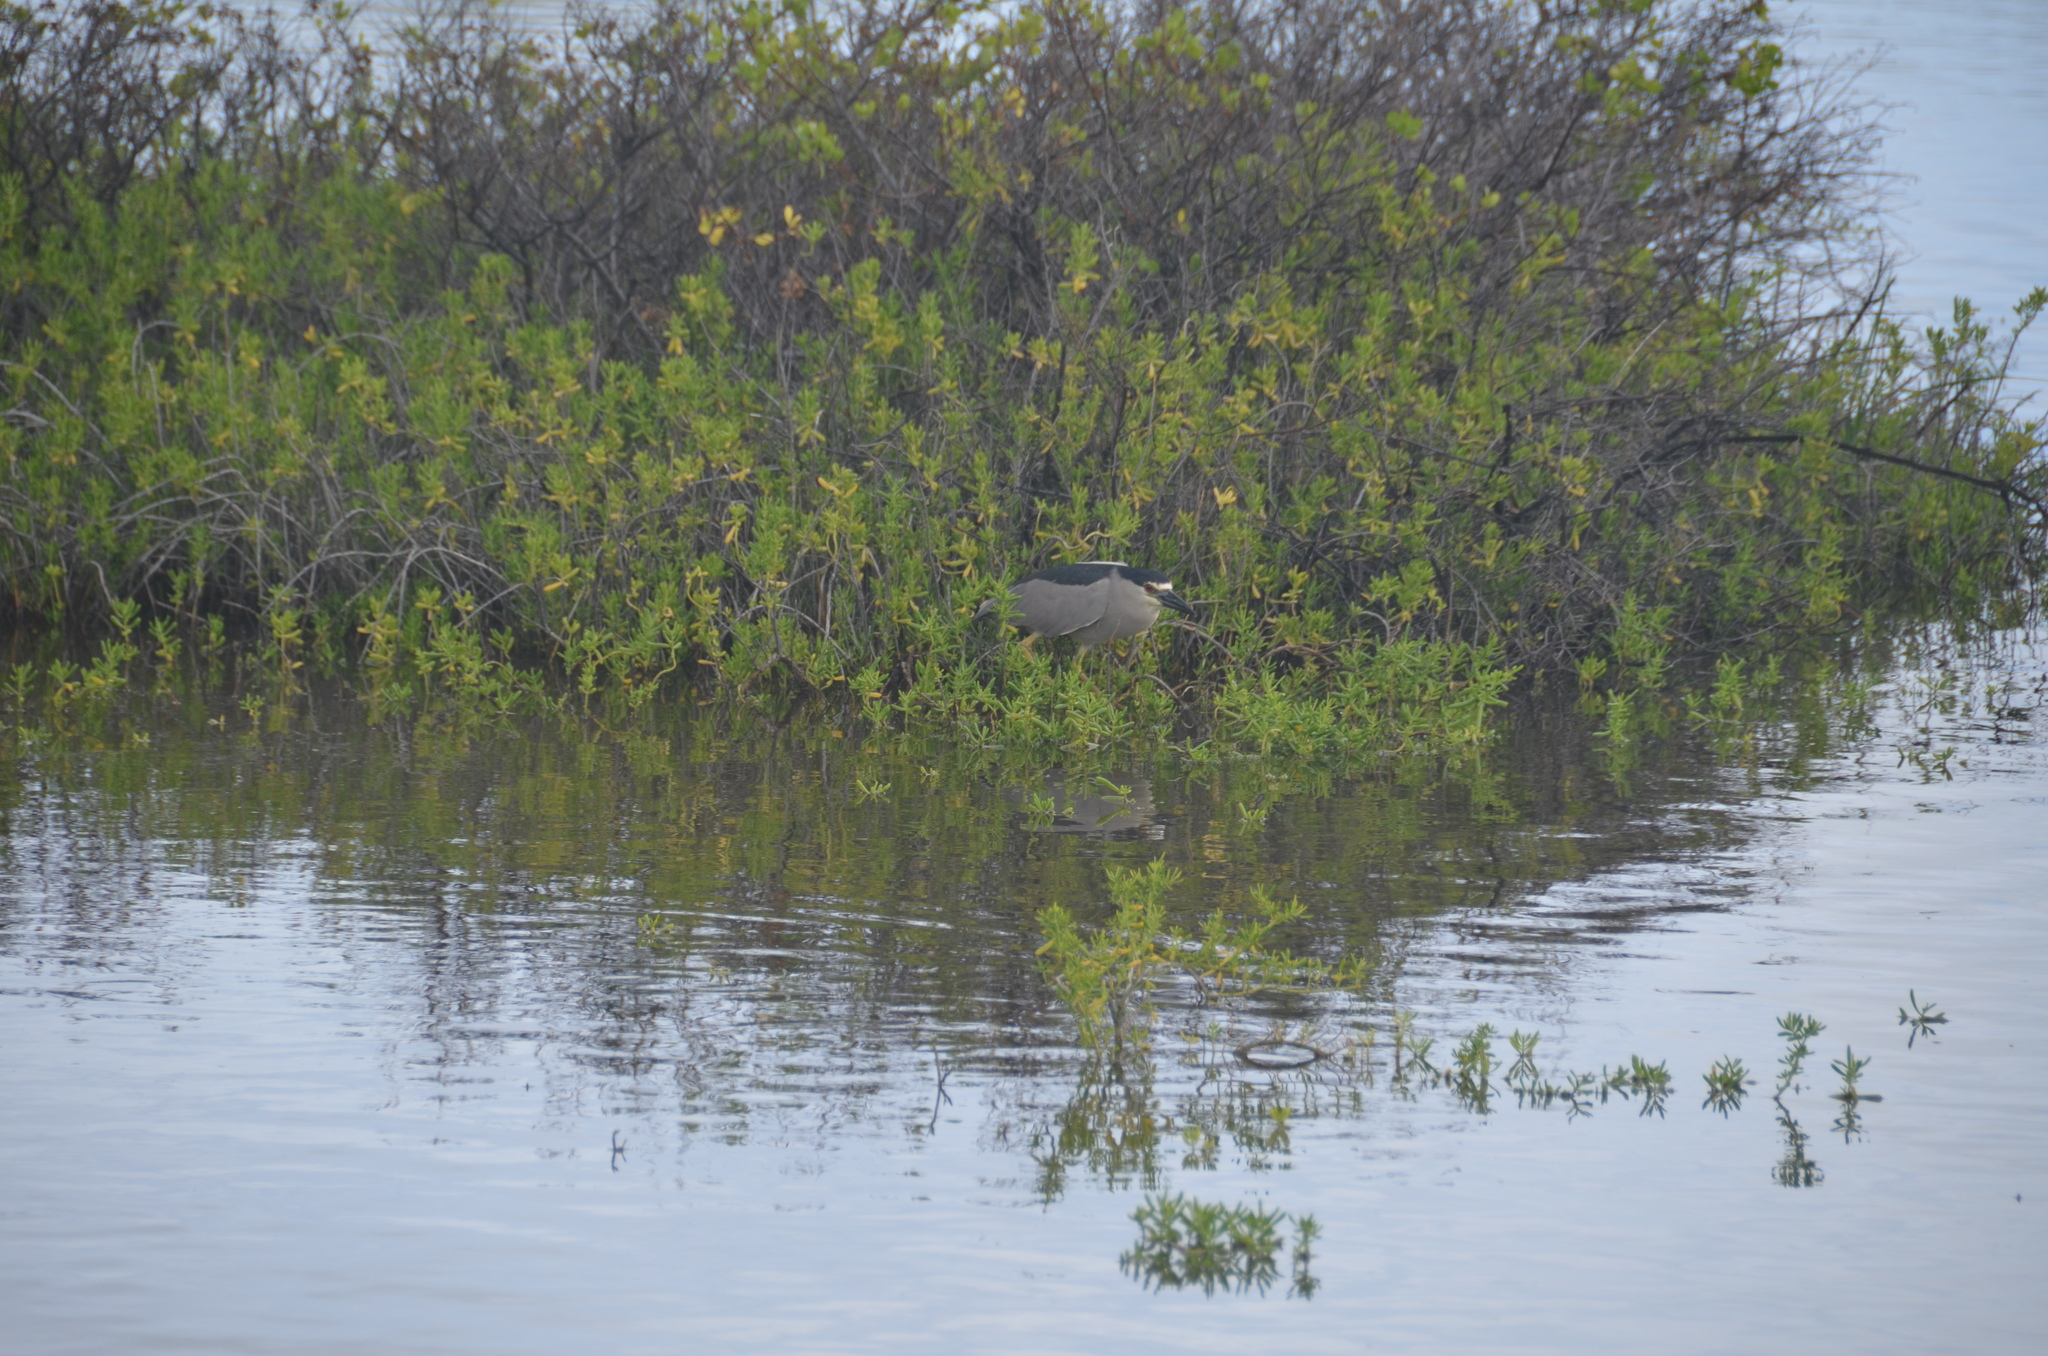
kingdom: Animalia
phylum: Chordata
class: Aves
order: Pelecaniformes
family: Ardeidae
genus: Nycticorax
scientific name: Nycticorax nycticorax
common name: Black-crowned night heron
